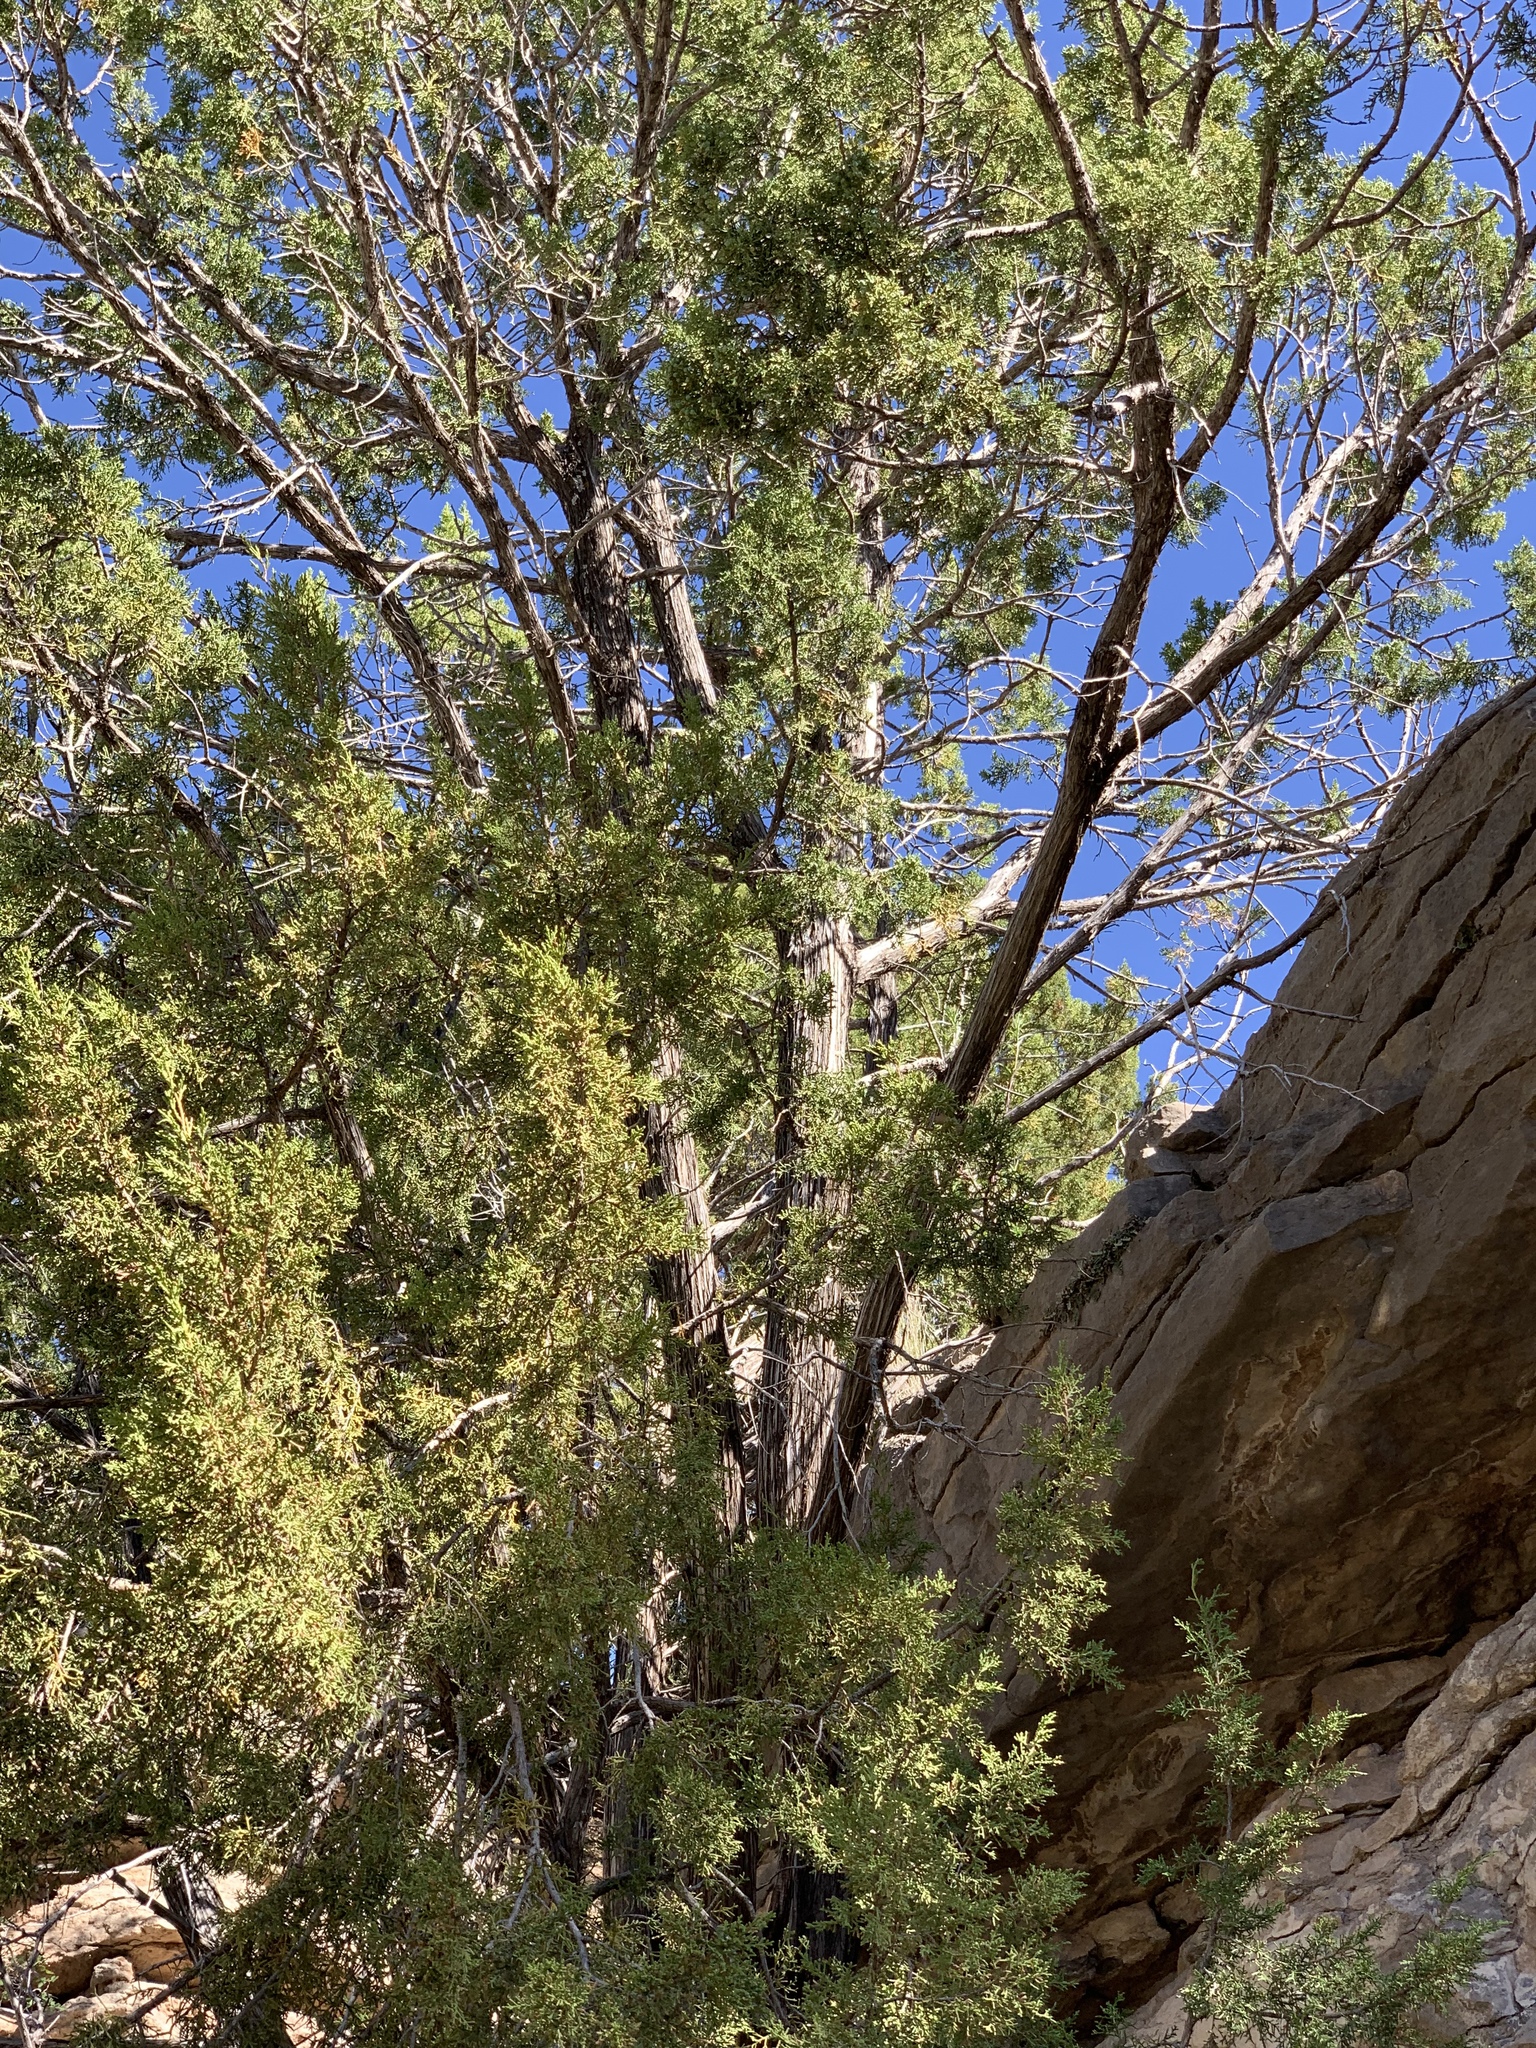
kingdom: Plantae
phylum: Tracheophyta
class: Pinopsida
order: Pinales
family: Cupressaceae
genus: Juniperus
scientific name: Juniperus monosperma
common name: One-seed juniper
